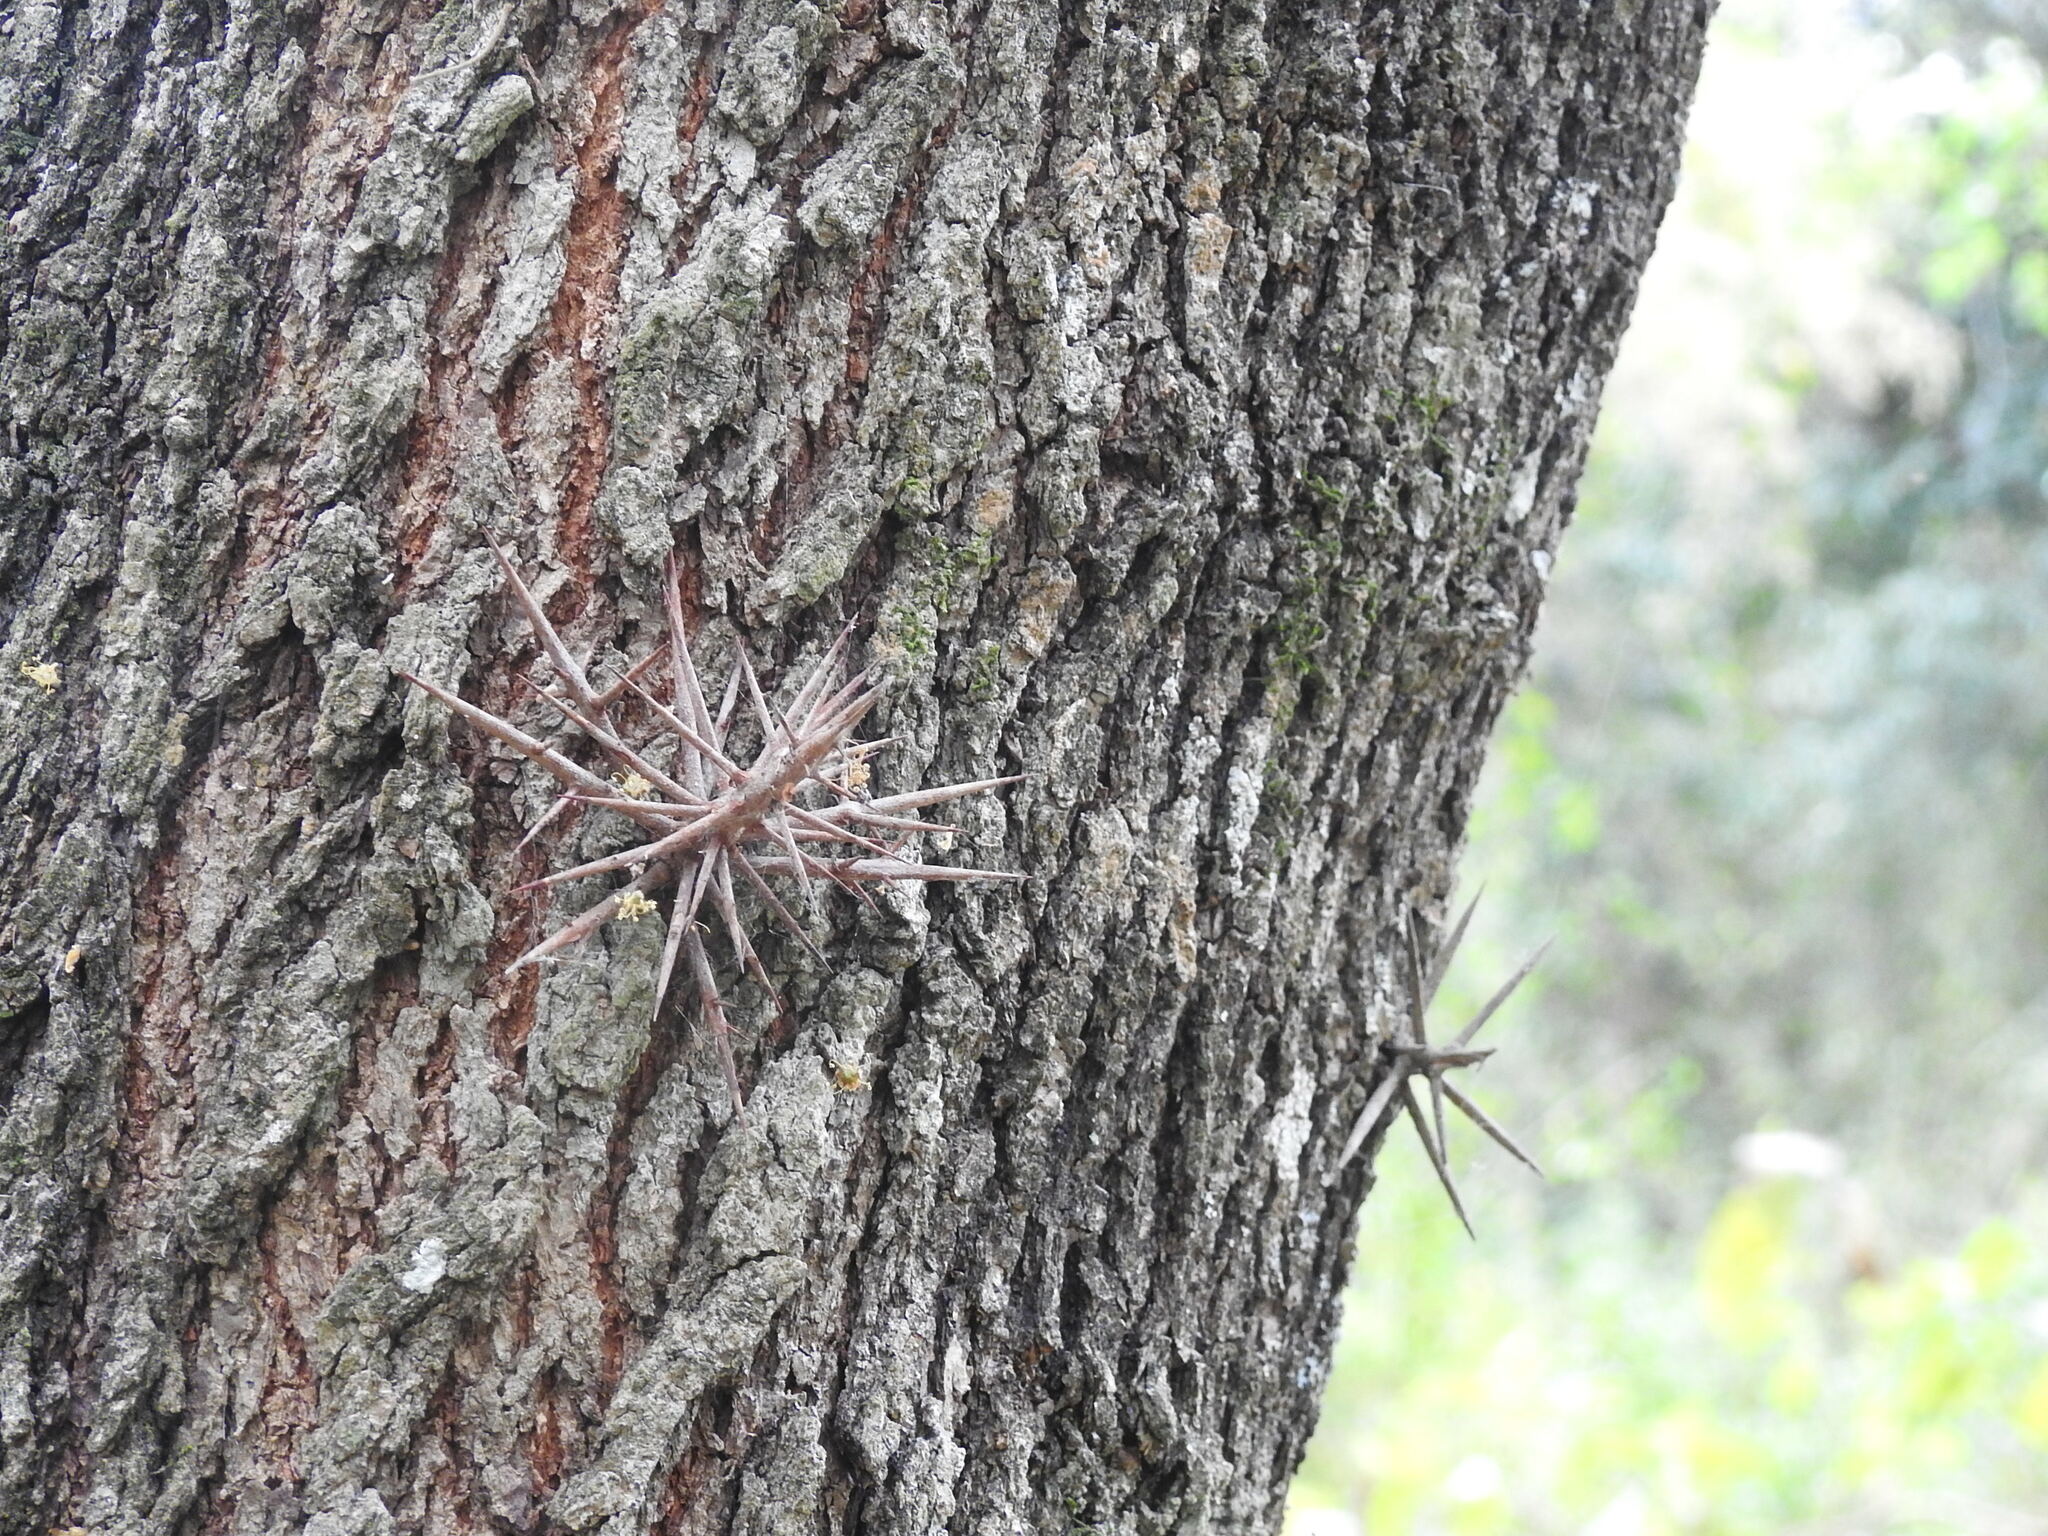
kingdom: Plantae
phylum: Tracheophyta
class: Magnoliopsida
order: Malpighiales
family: Salicaceae
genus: Xylosma
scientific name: Xylosma pubescens
